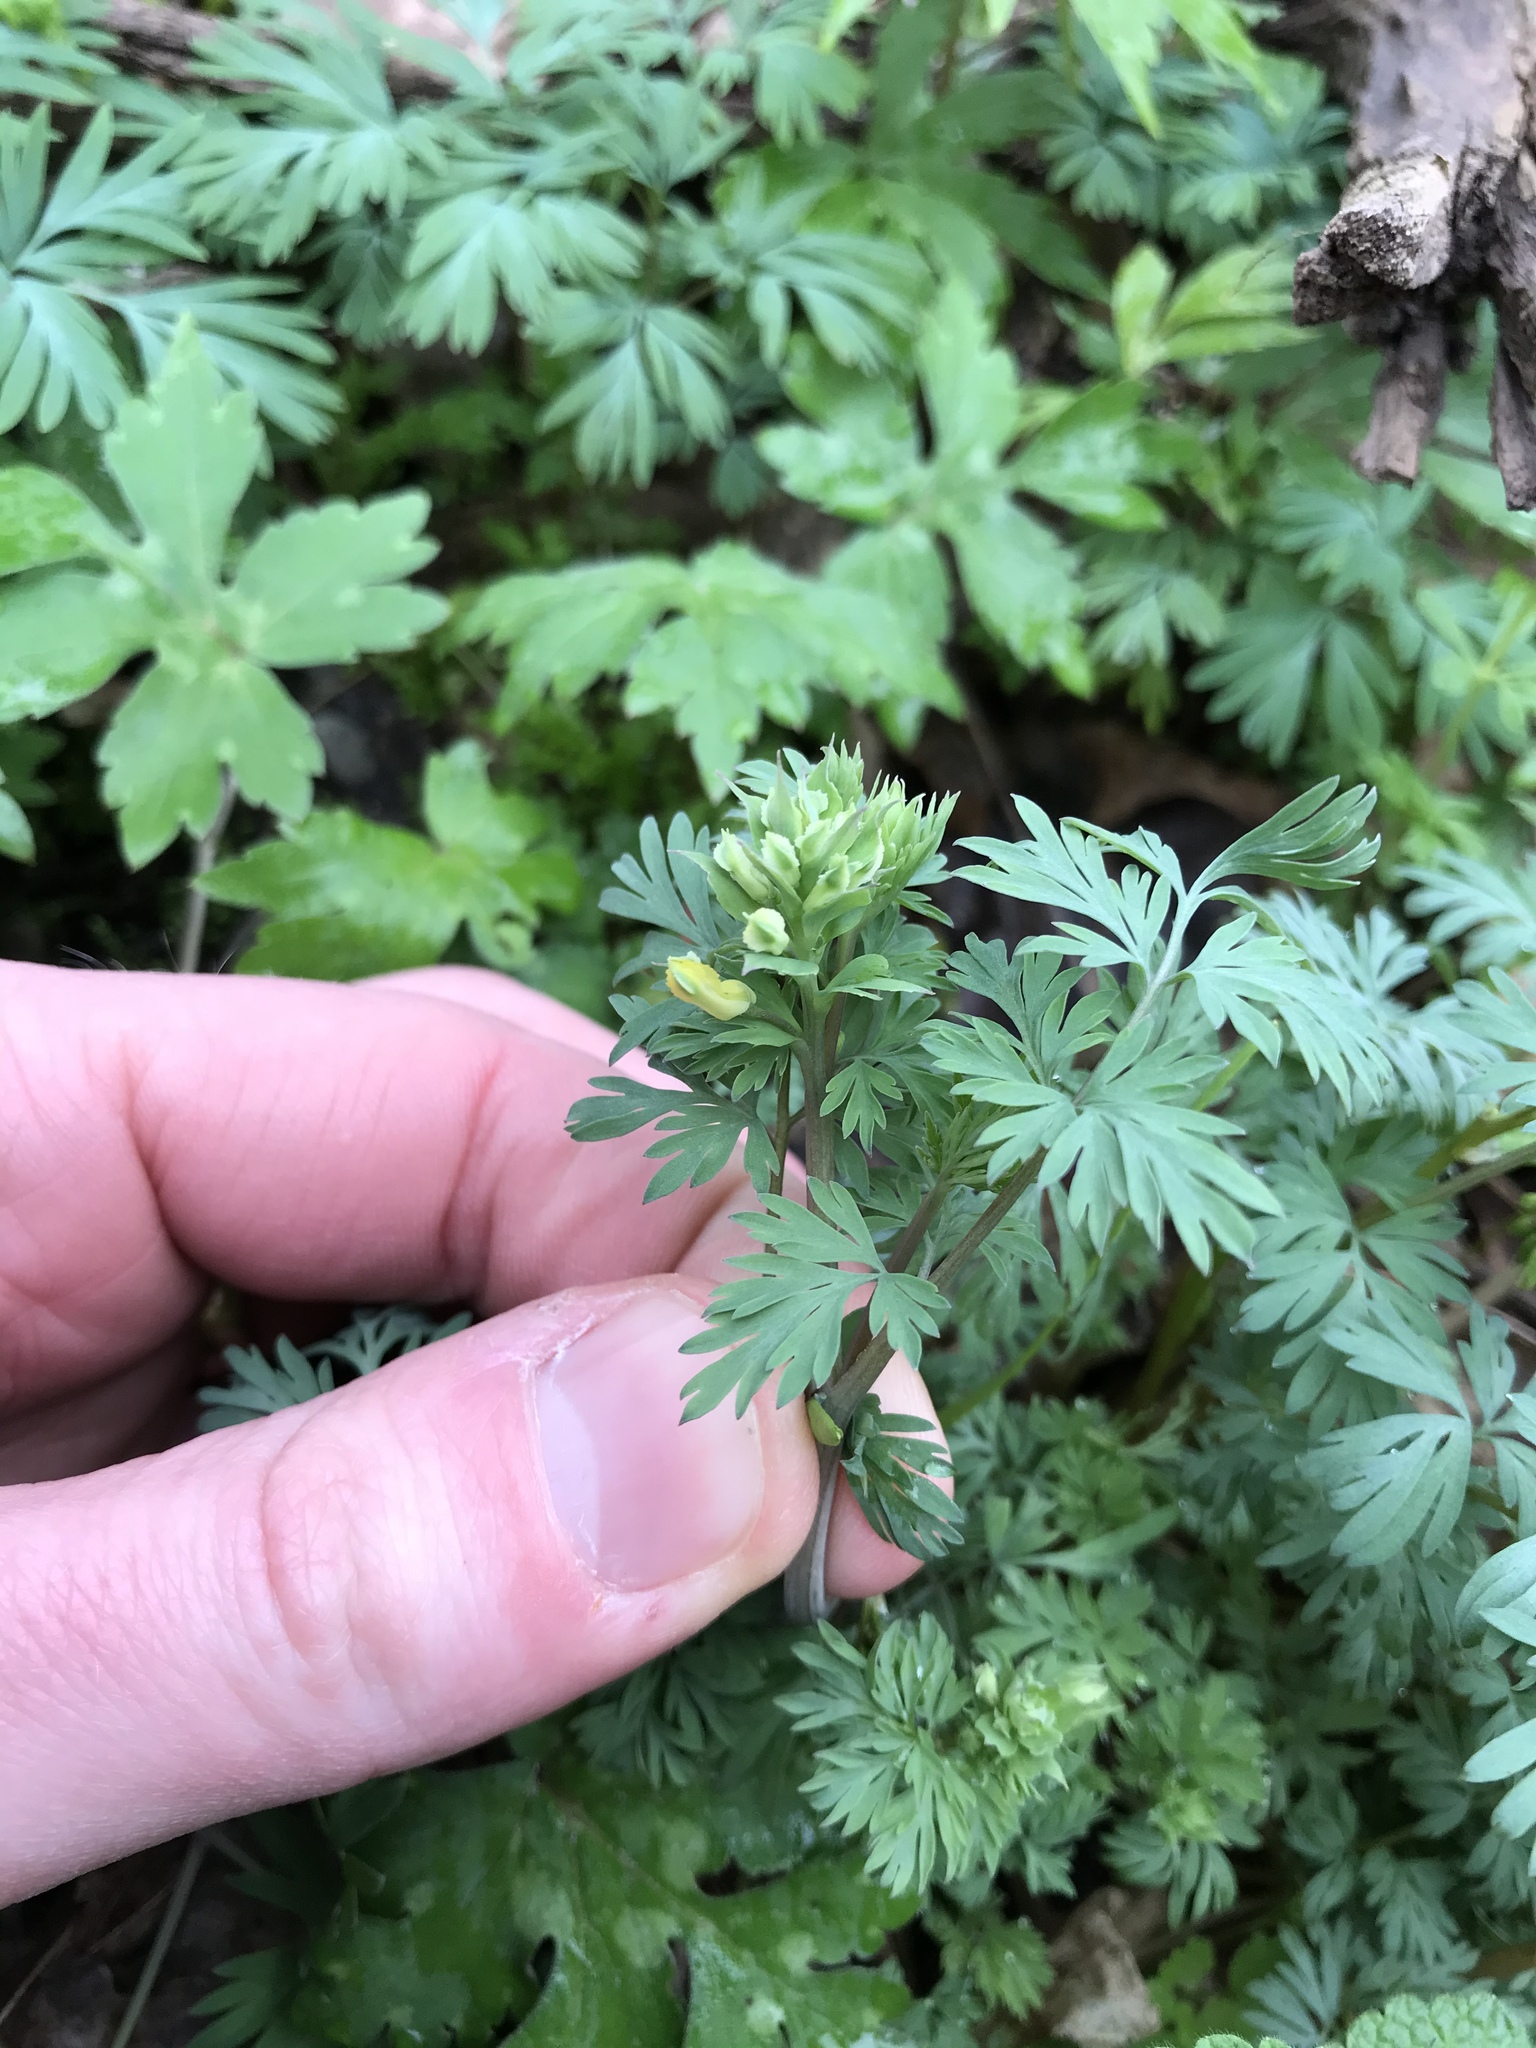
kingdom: Plantae
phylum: Tracheophyta
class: Magnoliopsida
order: Ranunculales
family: Papaveraceae
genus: Corydalis
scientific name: Corydalis flavula
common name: Yellow corydalis
